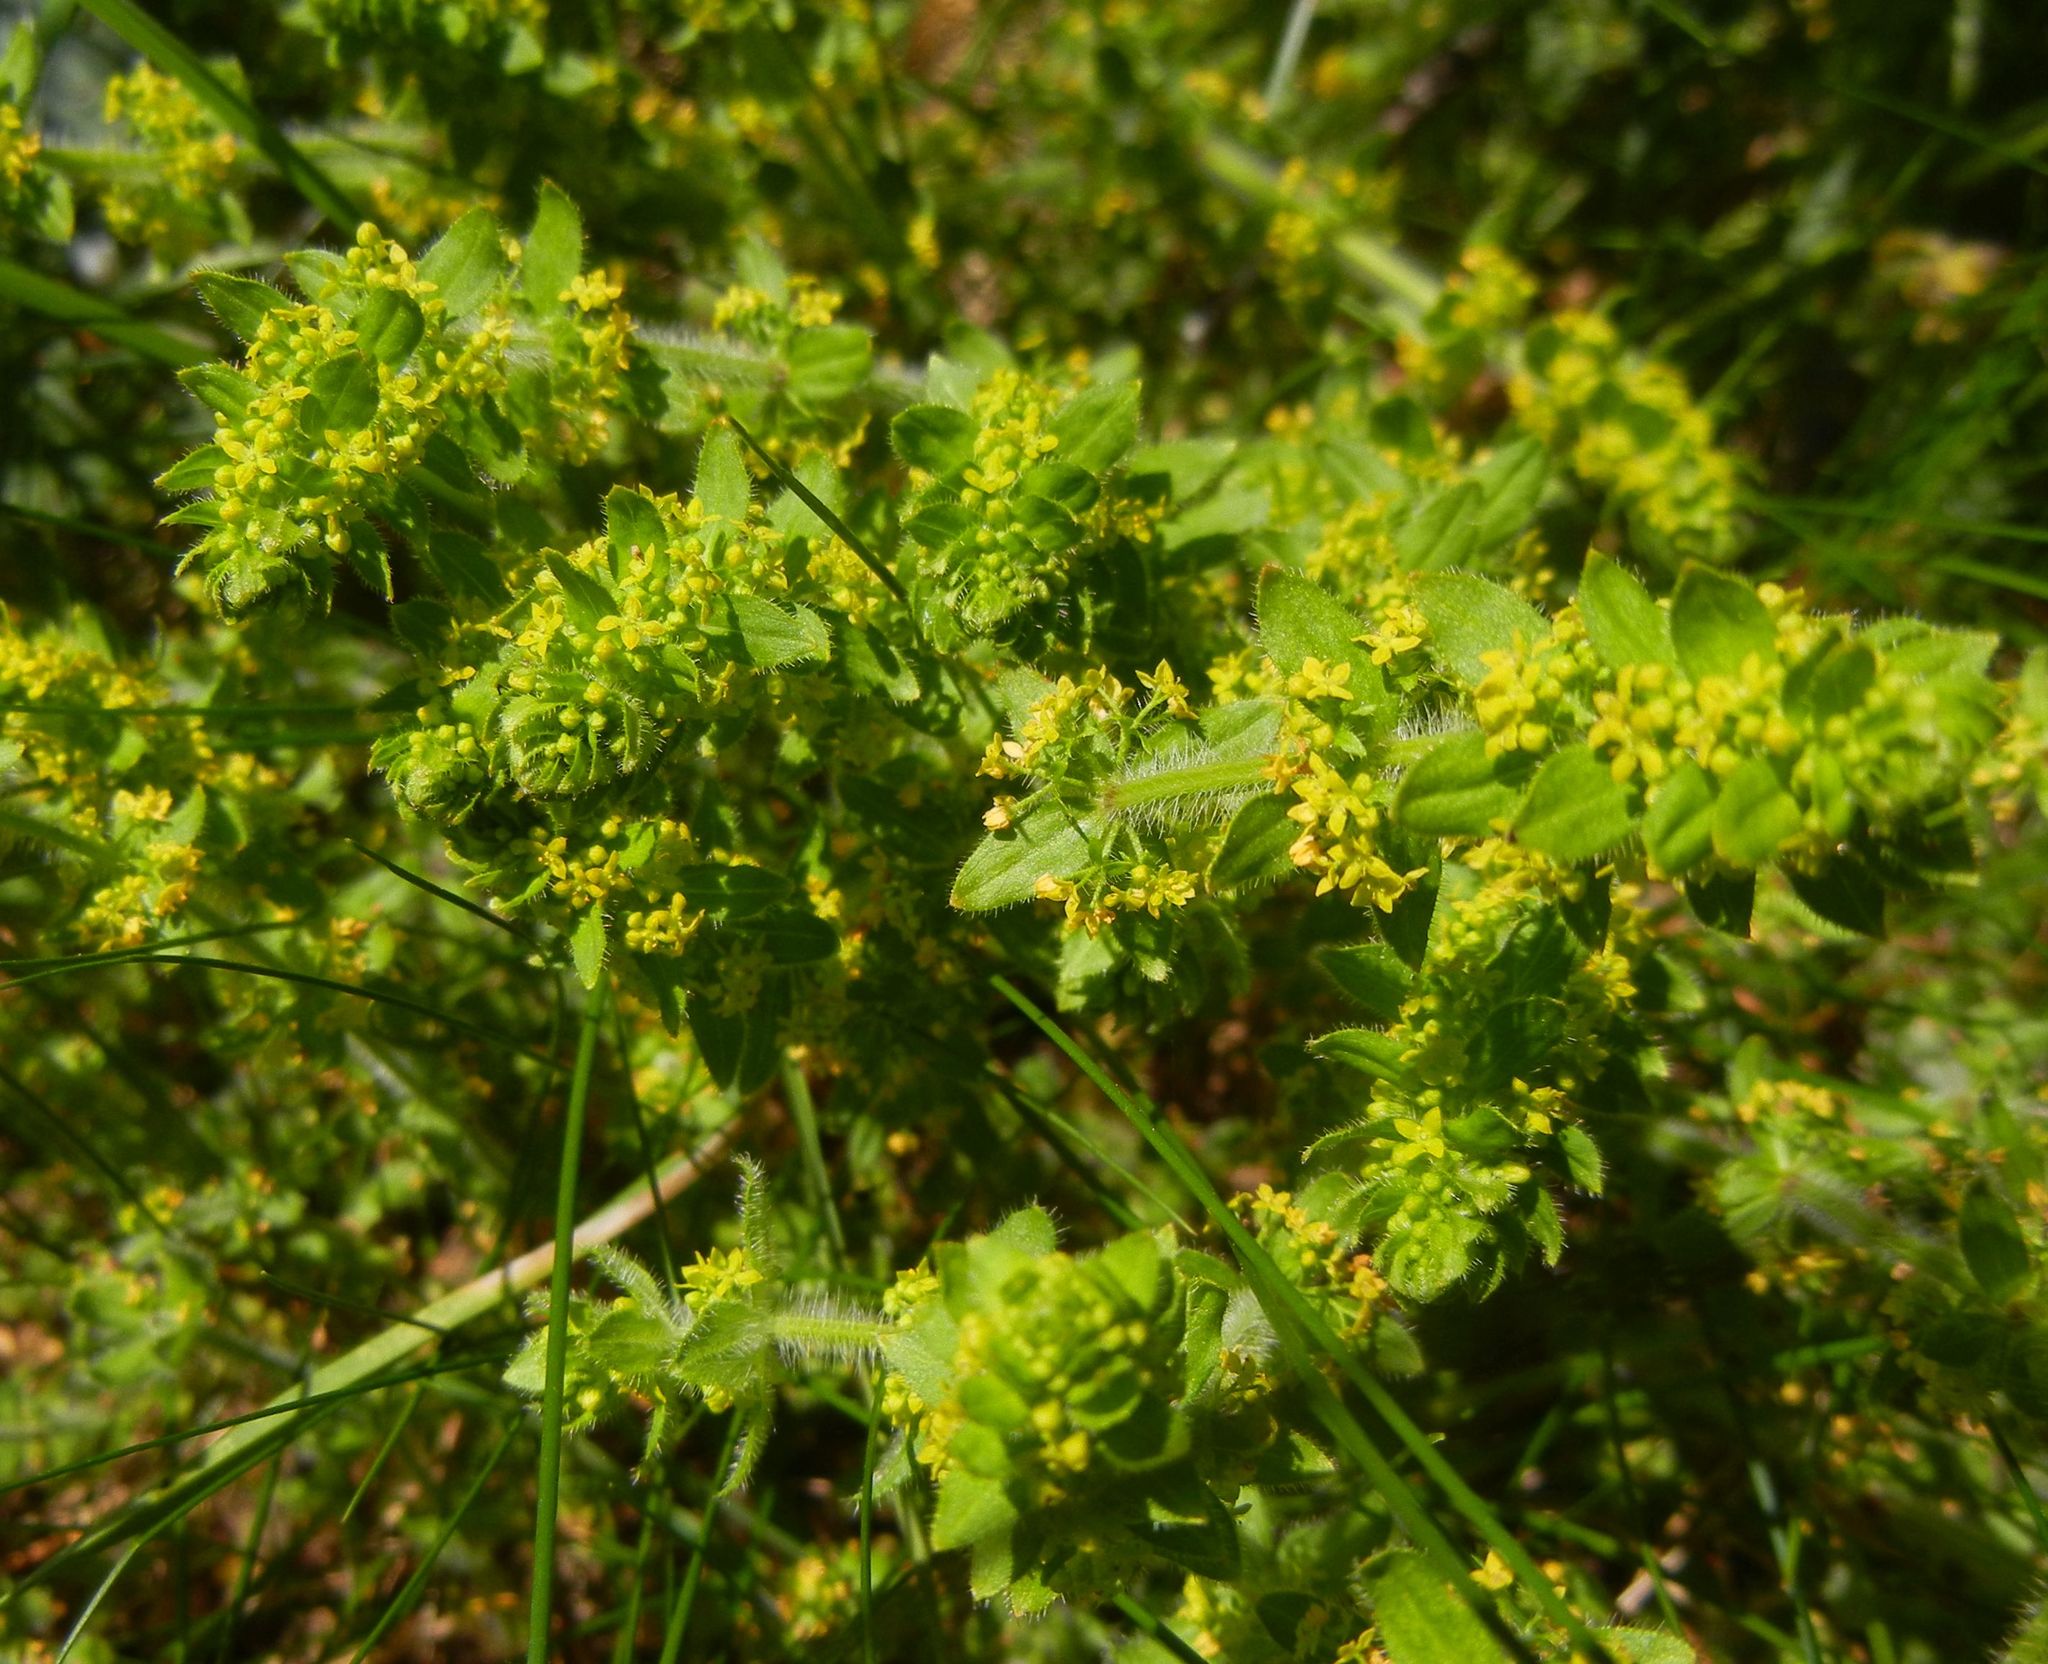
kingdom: Plantae
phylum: Tracheophyta
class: Magnoliopsida
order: Gentianales
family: Rubiaceae
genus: Cruciata
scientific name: Cruciata laevipes
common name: Crosswort
